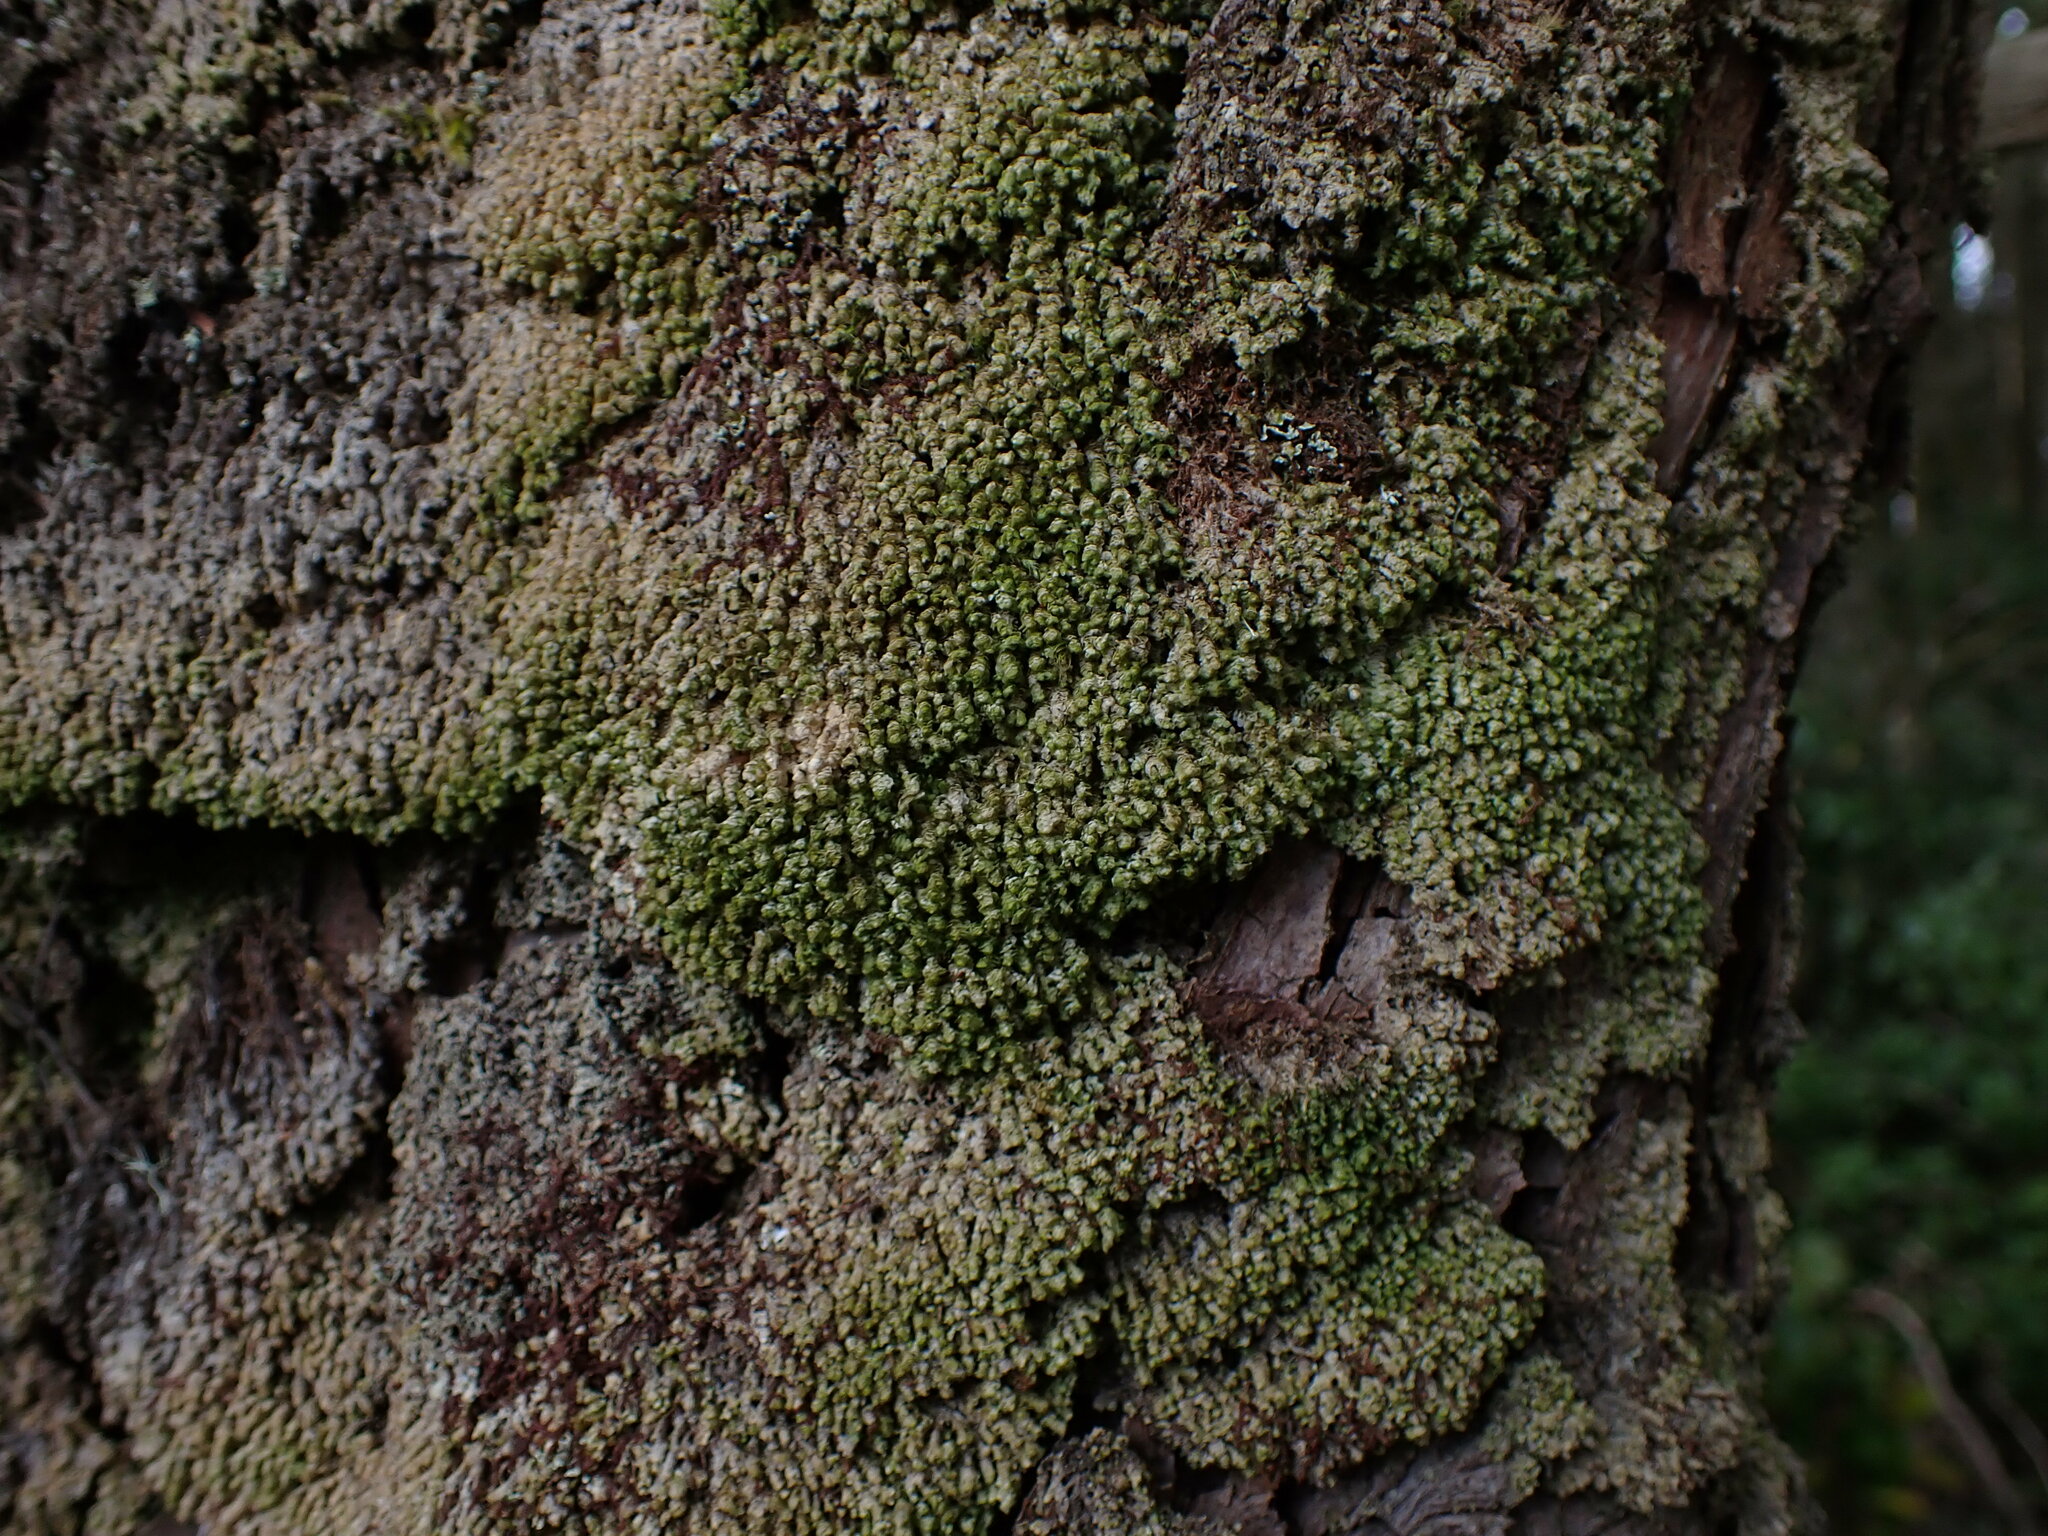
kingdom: Plantae
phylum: Marchantiophyta
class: Jungermanniopsida
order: Jungermanniales
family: Scapaniaceae
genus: Scapania
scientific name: Scapania bolanderi
